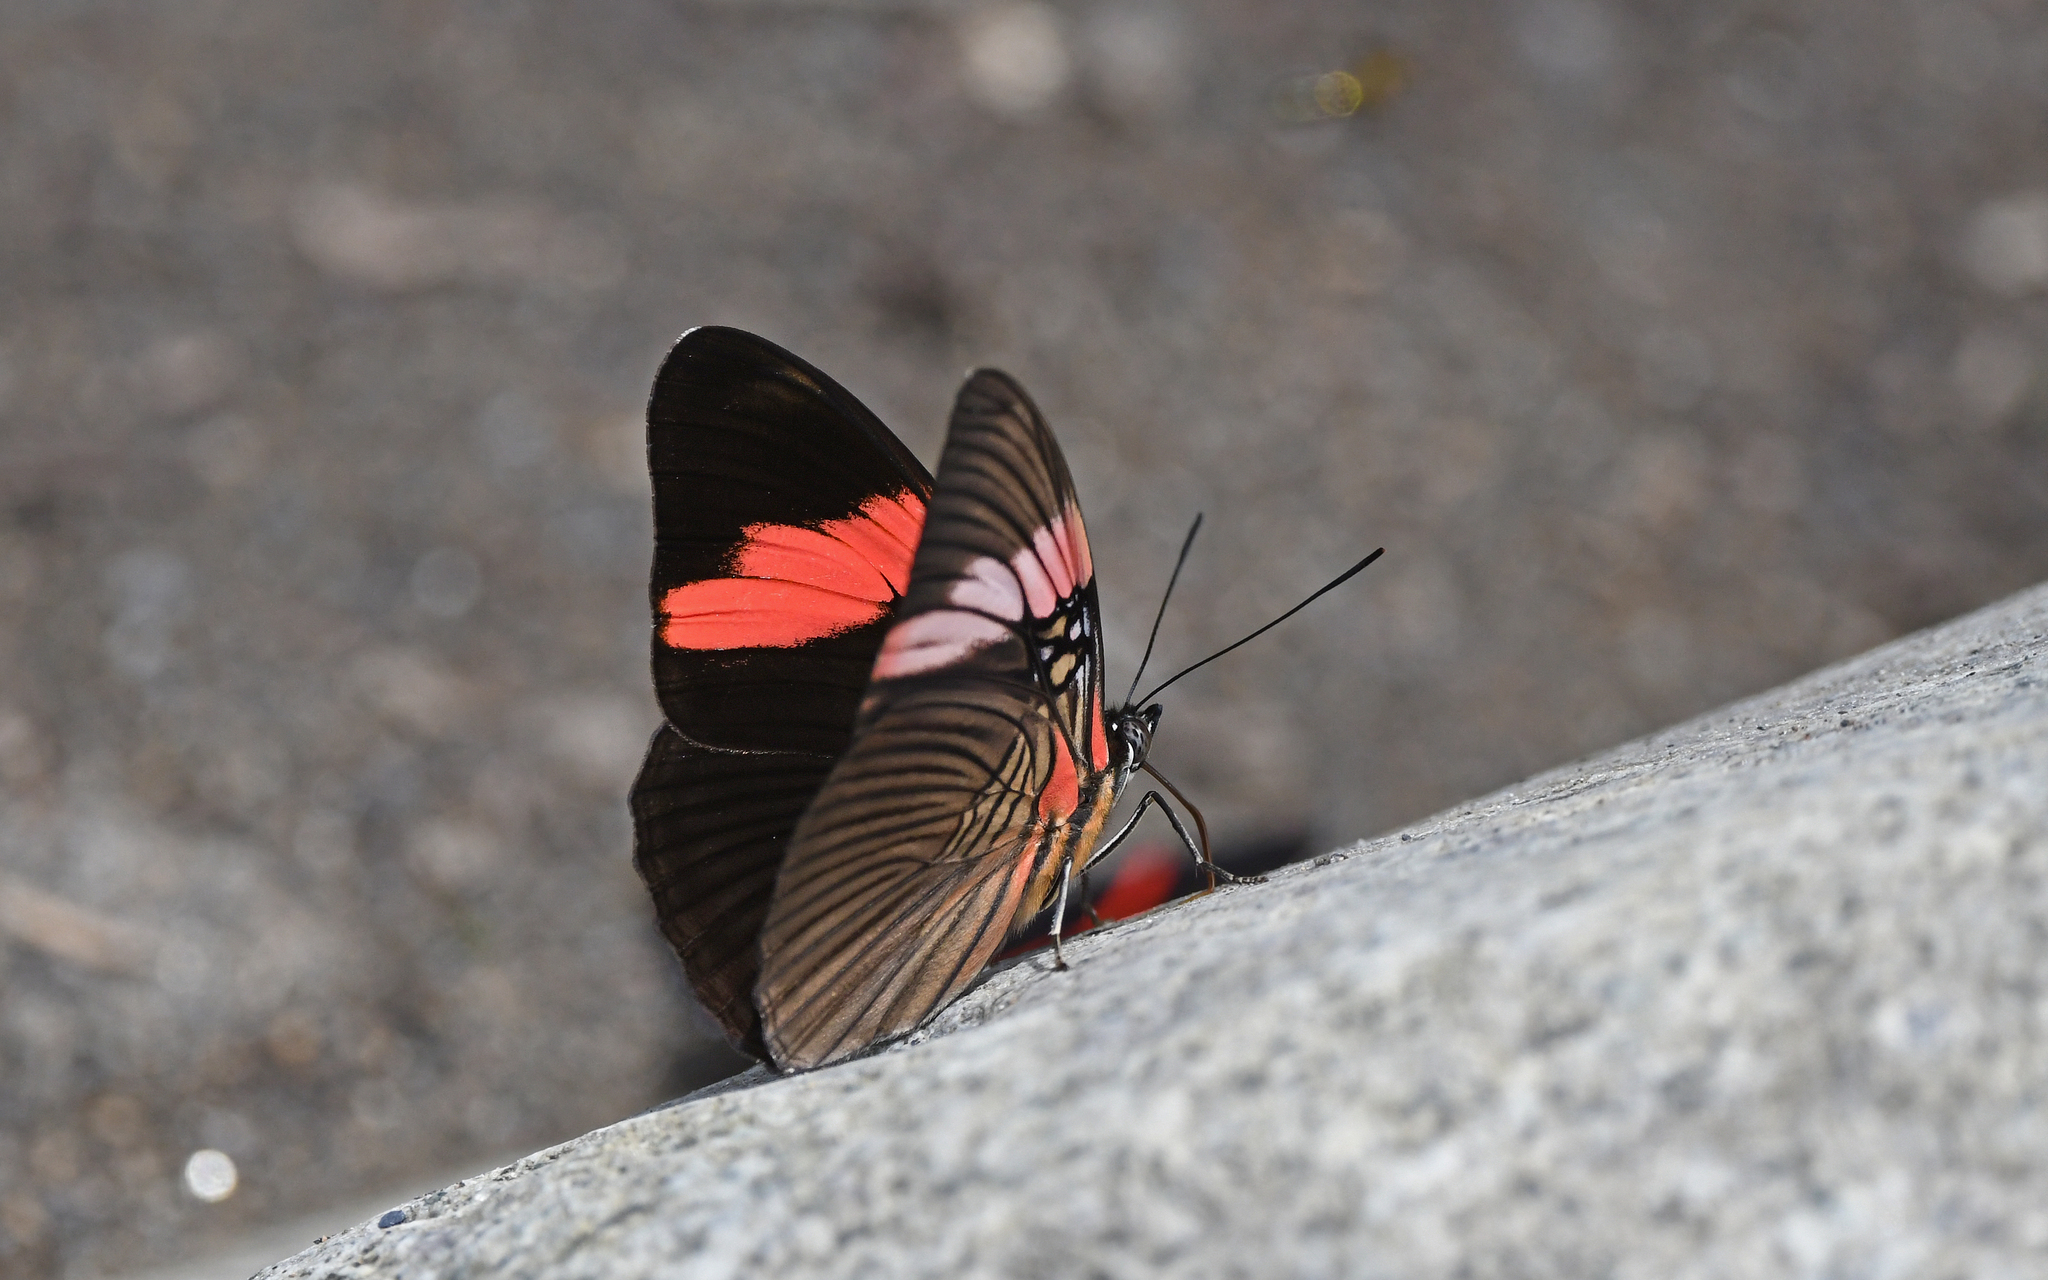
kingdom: Animalia
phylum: Arthropoda
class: Insecta
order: Lepidoptera
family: Nymphalidae
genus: Limenitis
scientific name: Limenitis isis
